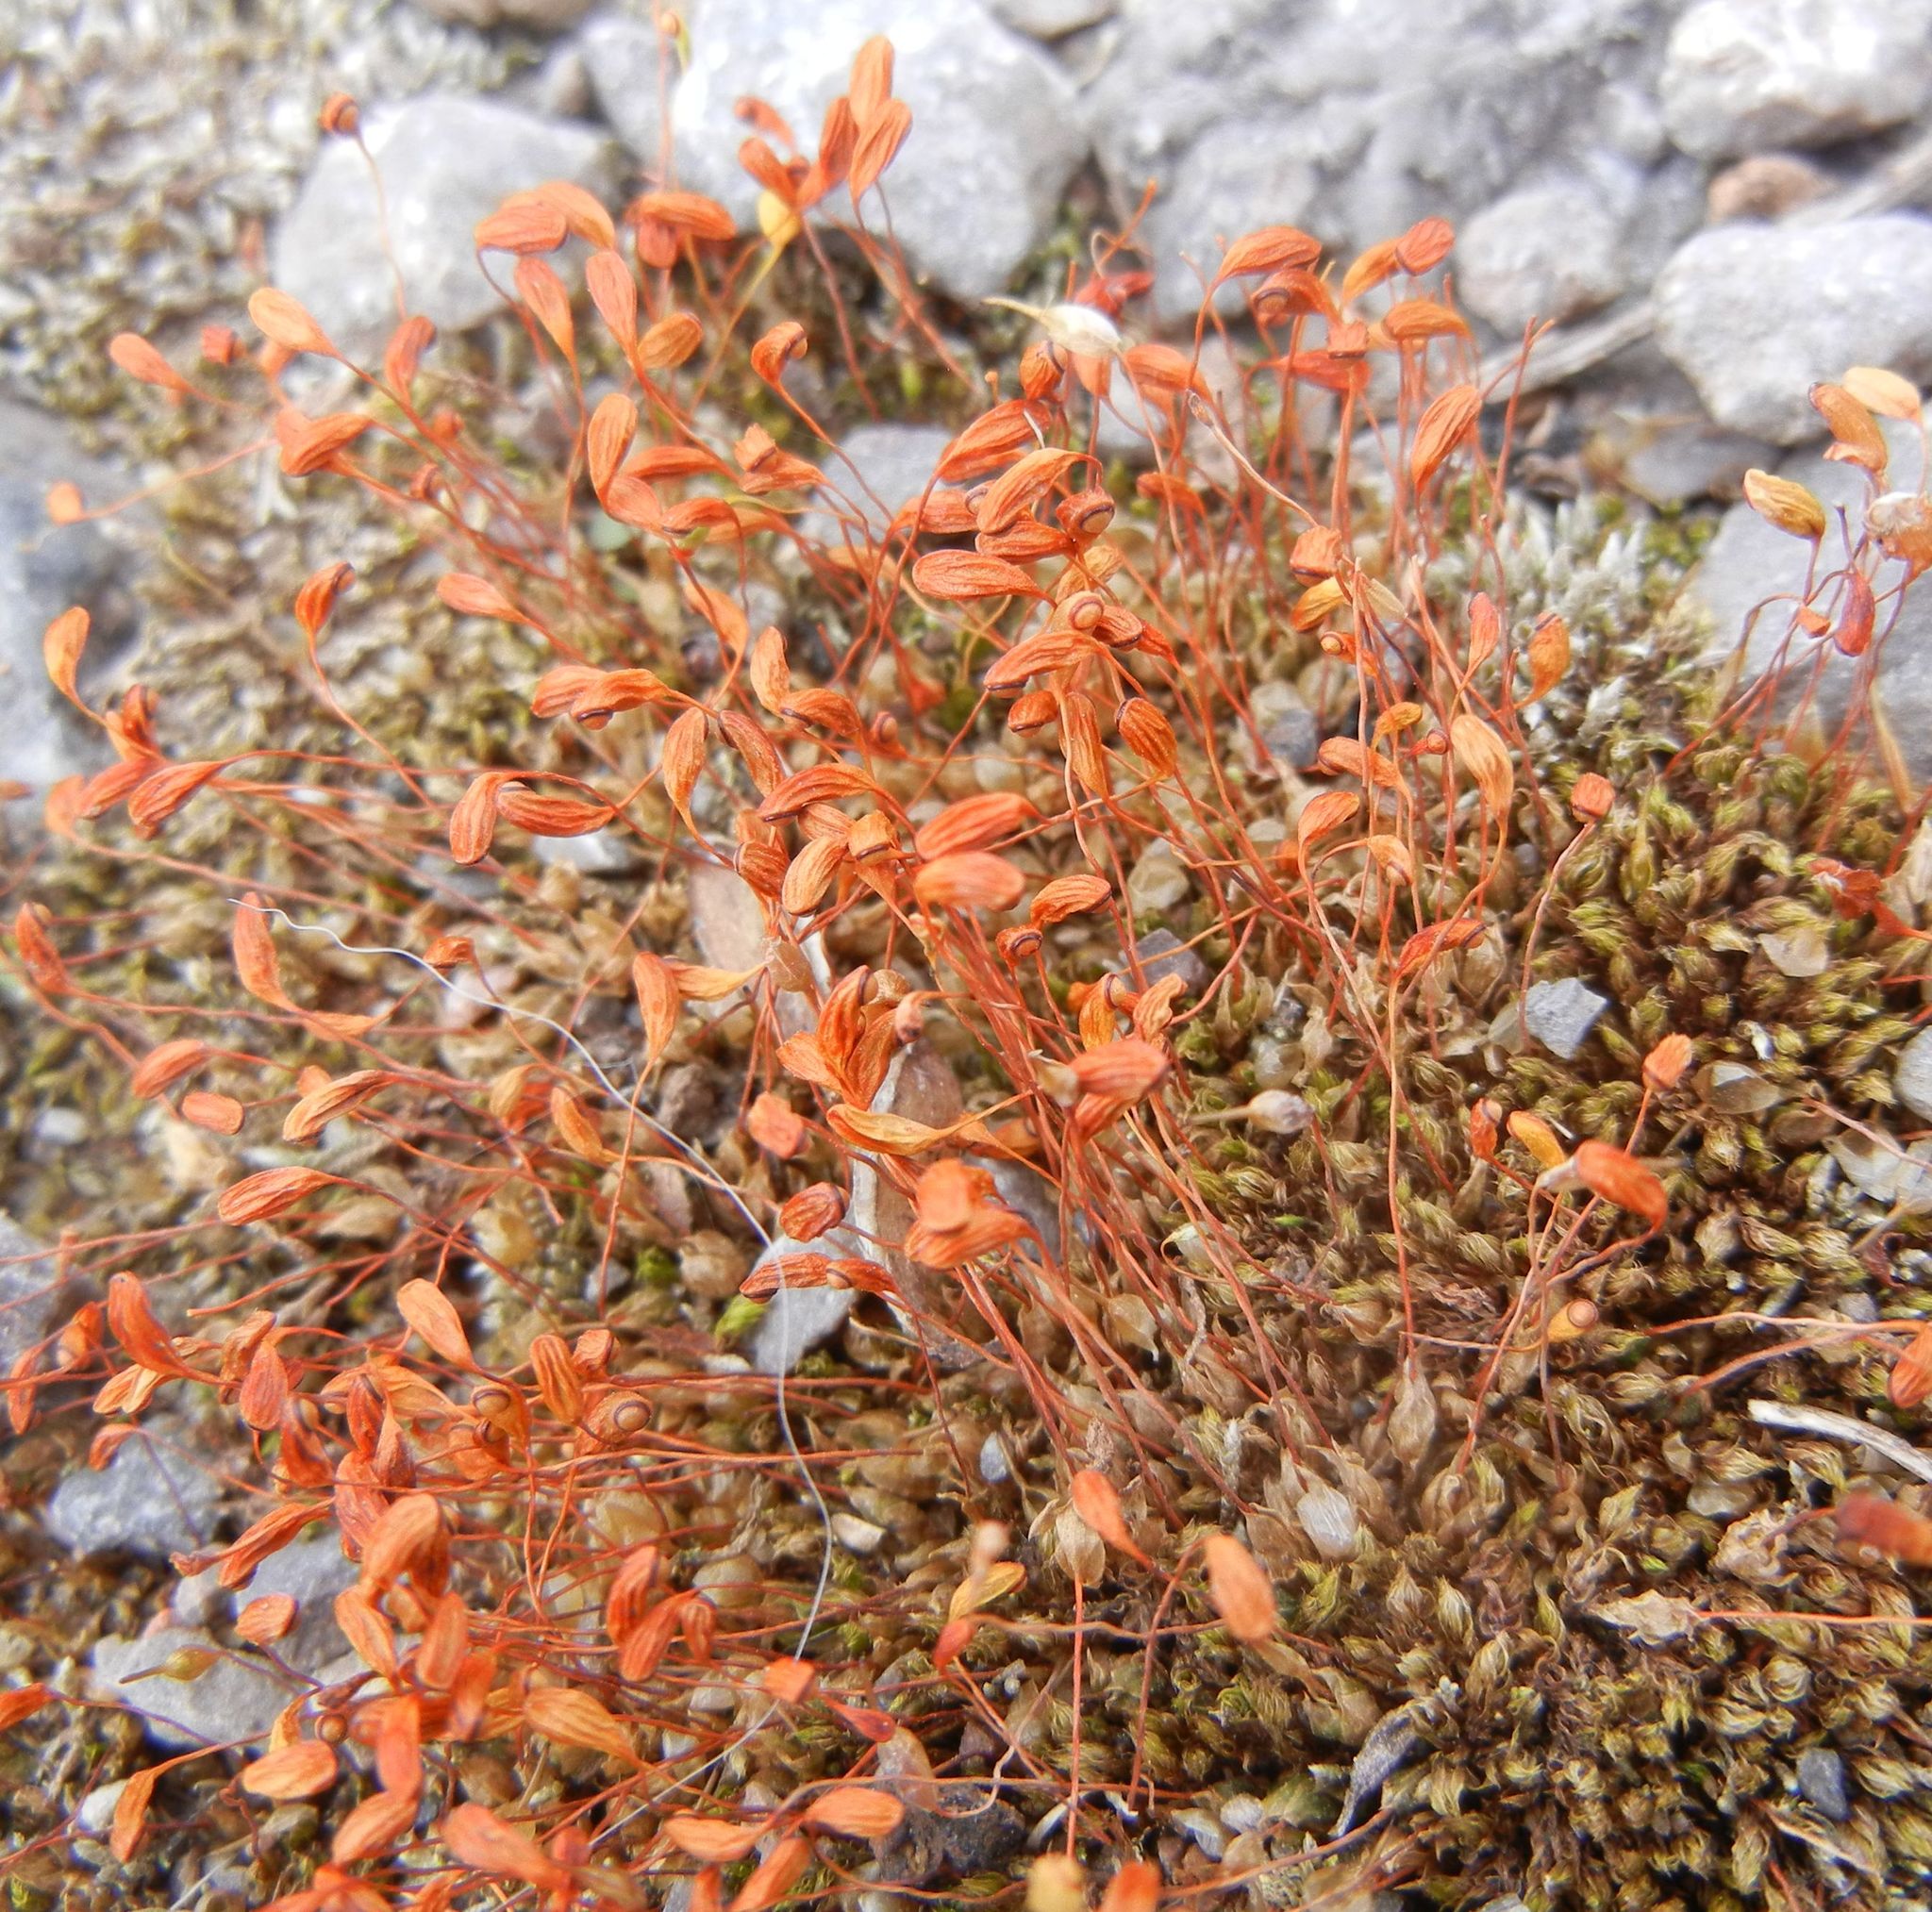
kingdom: Plantae
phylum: Bryophyta
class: Bryopsida
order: Funariales
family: Funariaceae
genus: Funaria
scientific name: Funaria hygrometrica
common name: Common cord moss
